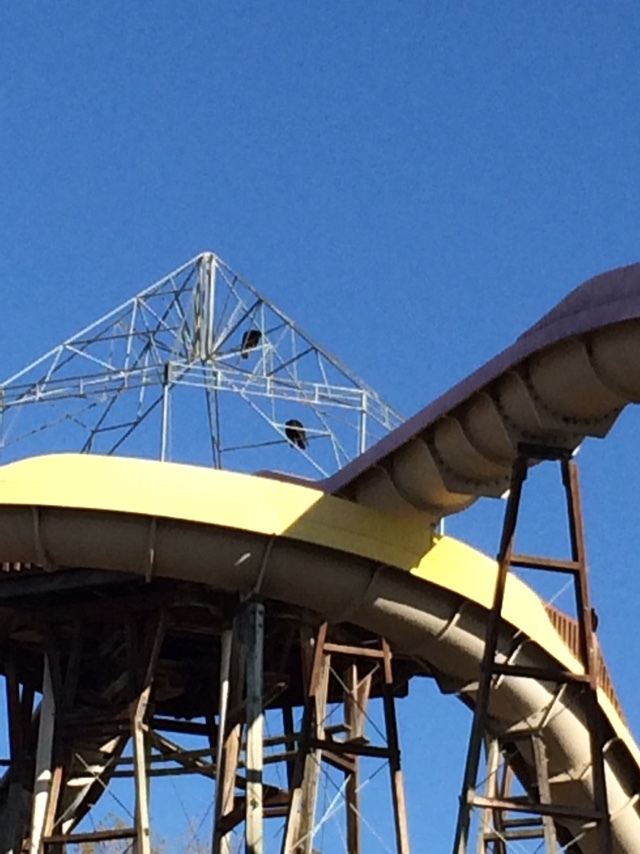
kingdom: Animalia
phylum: Chordata
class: Aves
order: Accipitriformes
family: Cathartidae
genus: Cathartes
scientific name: Cathartes aura
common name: Turkey vulture
